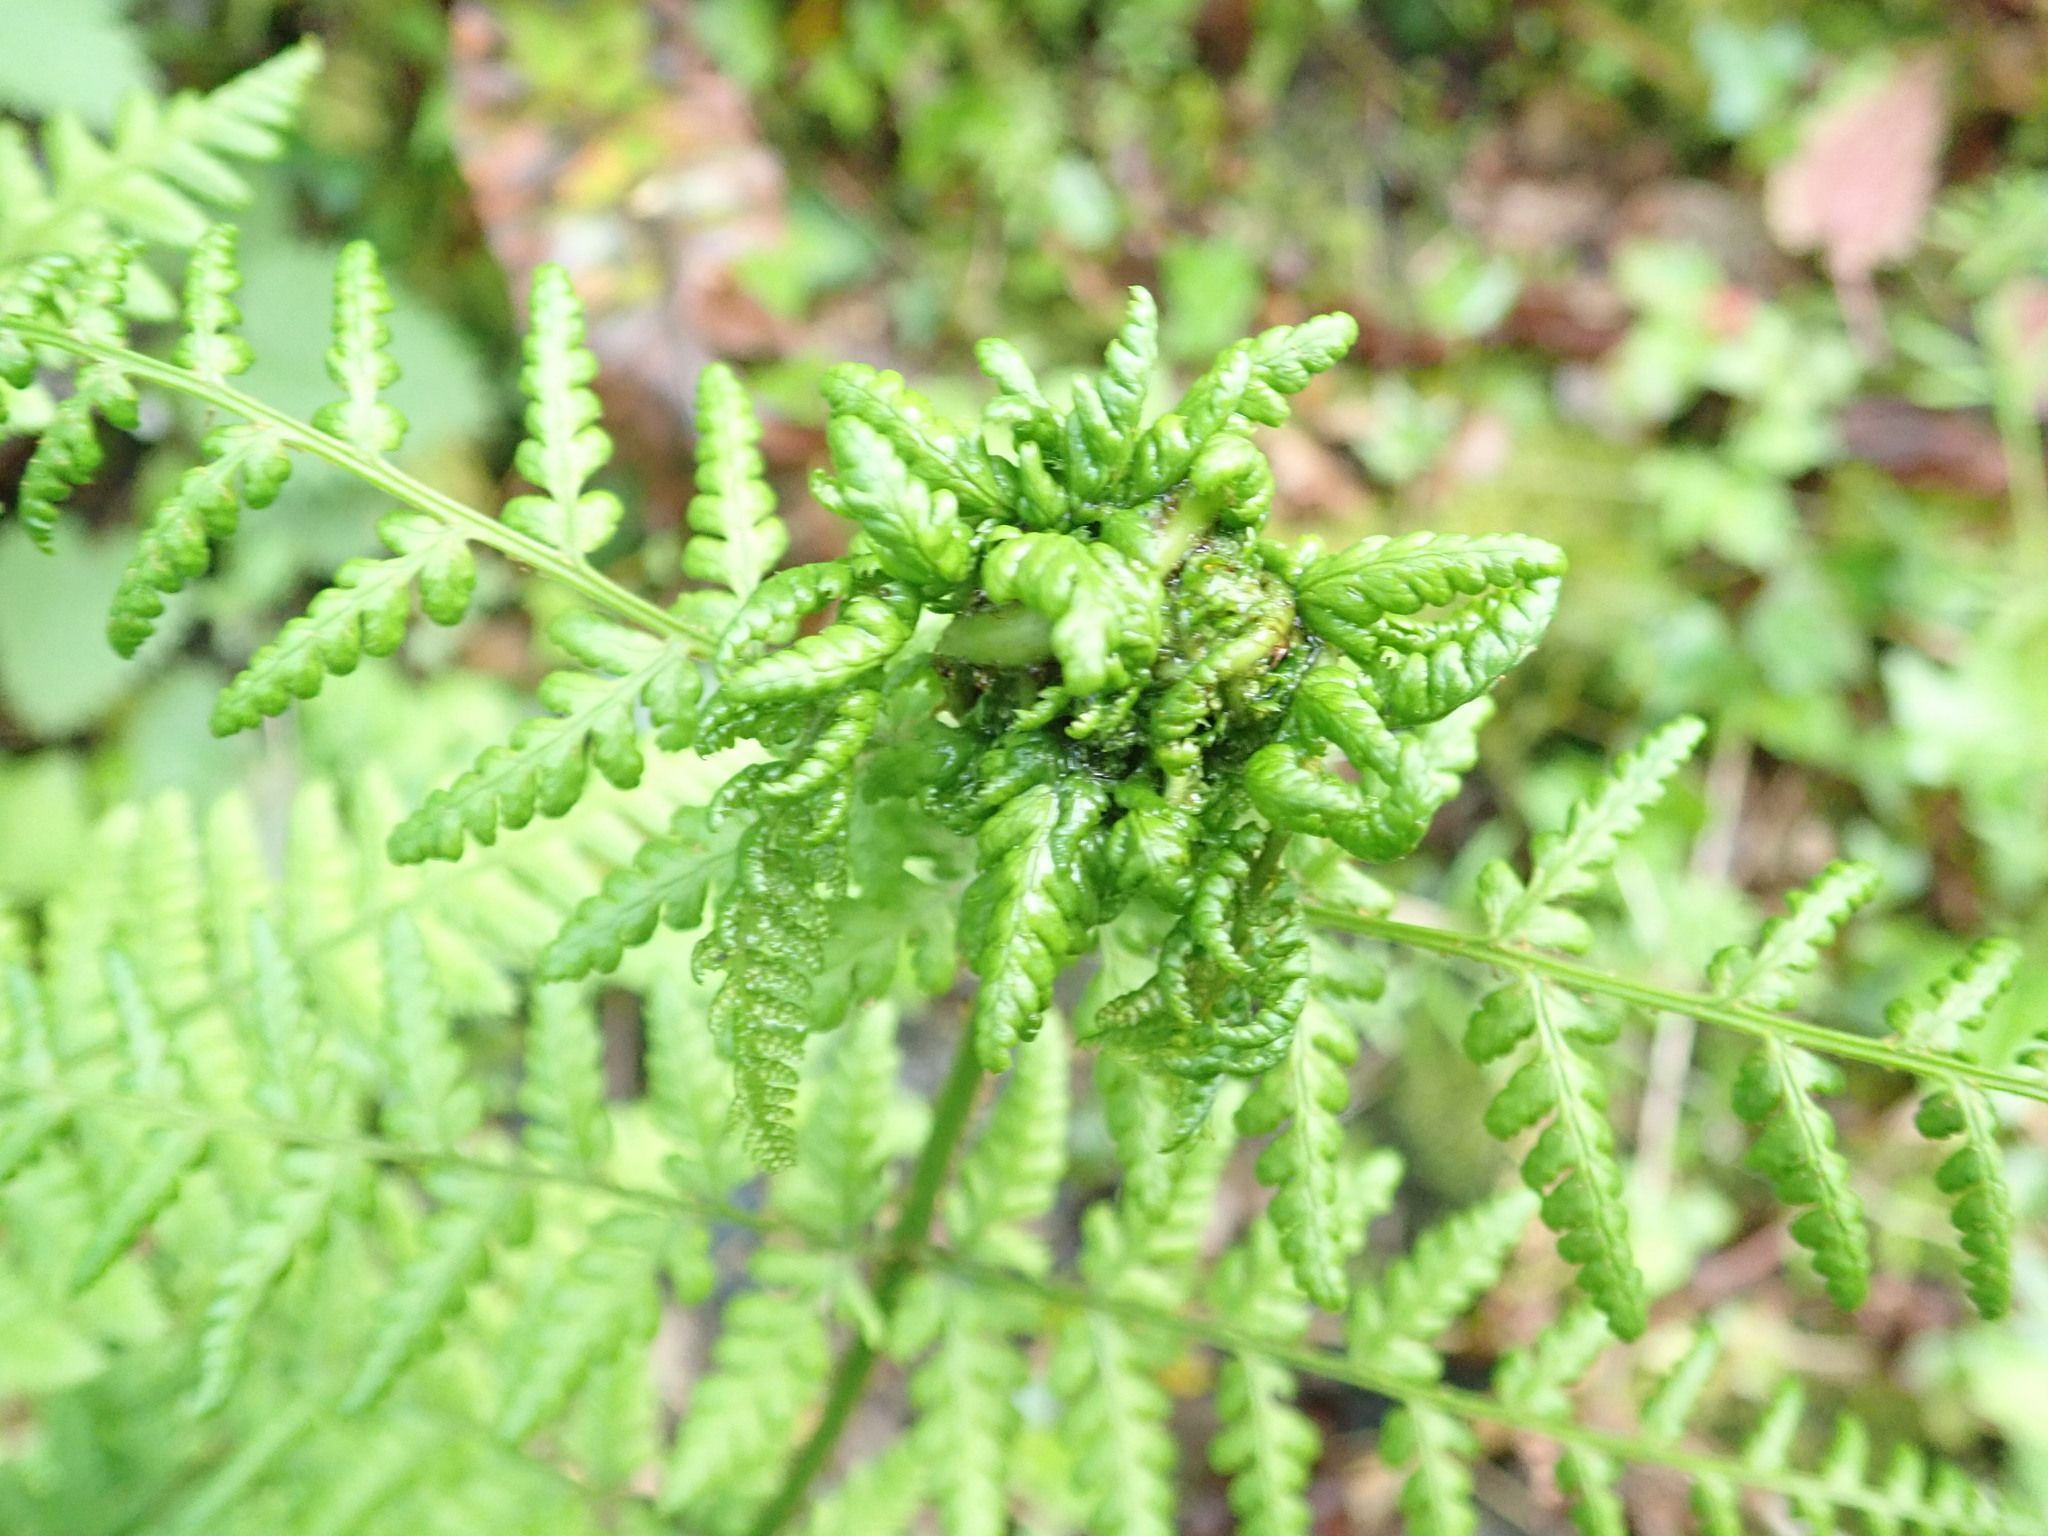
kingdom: Animalia
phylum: Arthropoda
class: Insecta
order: Diptera
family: Anthomyiidae
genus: Chirosia
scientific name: Chirosia betuleti
